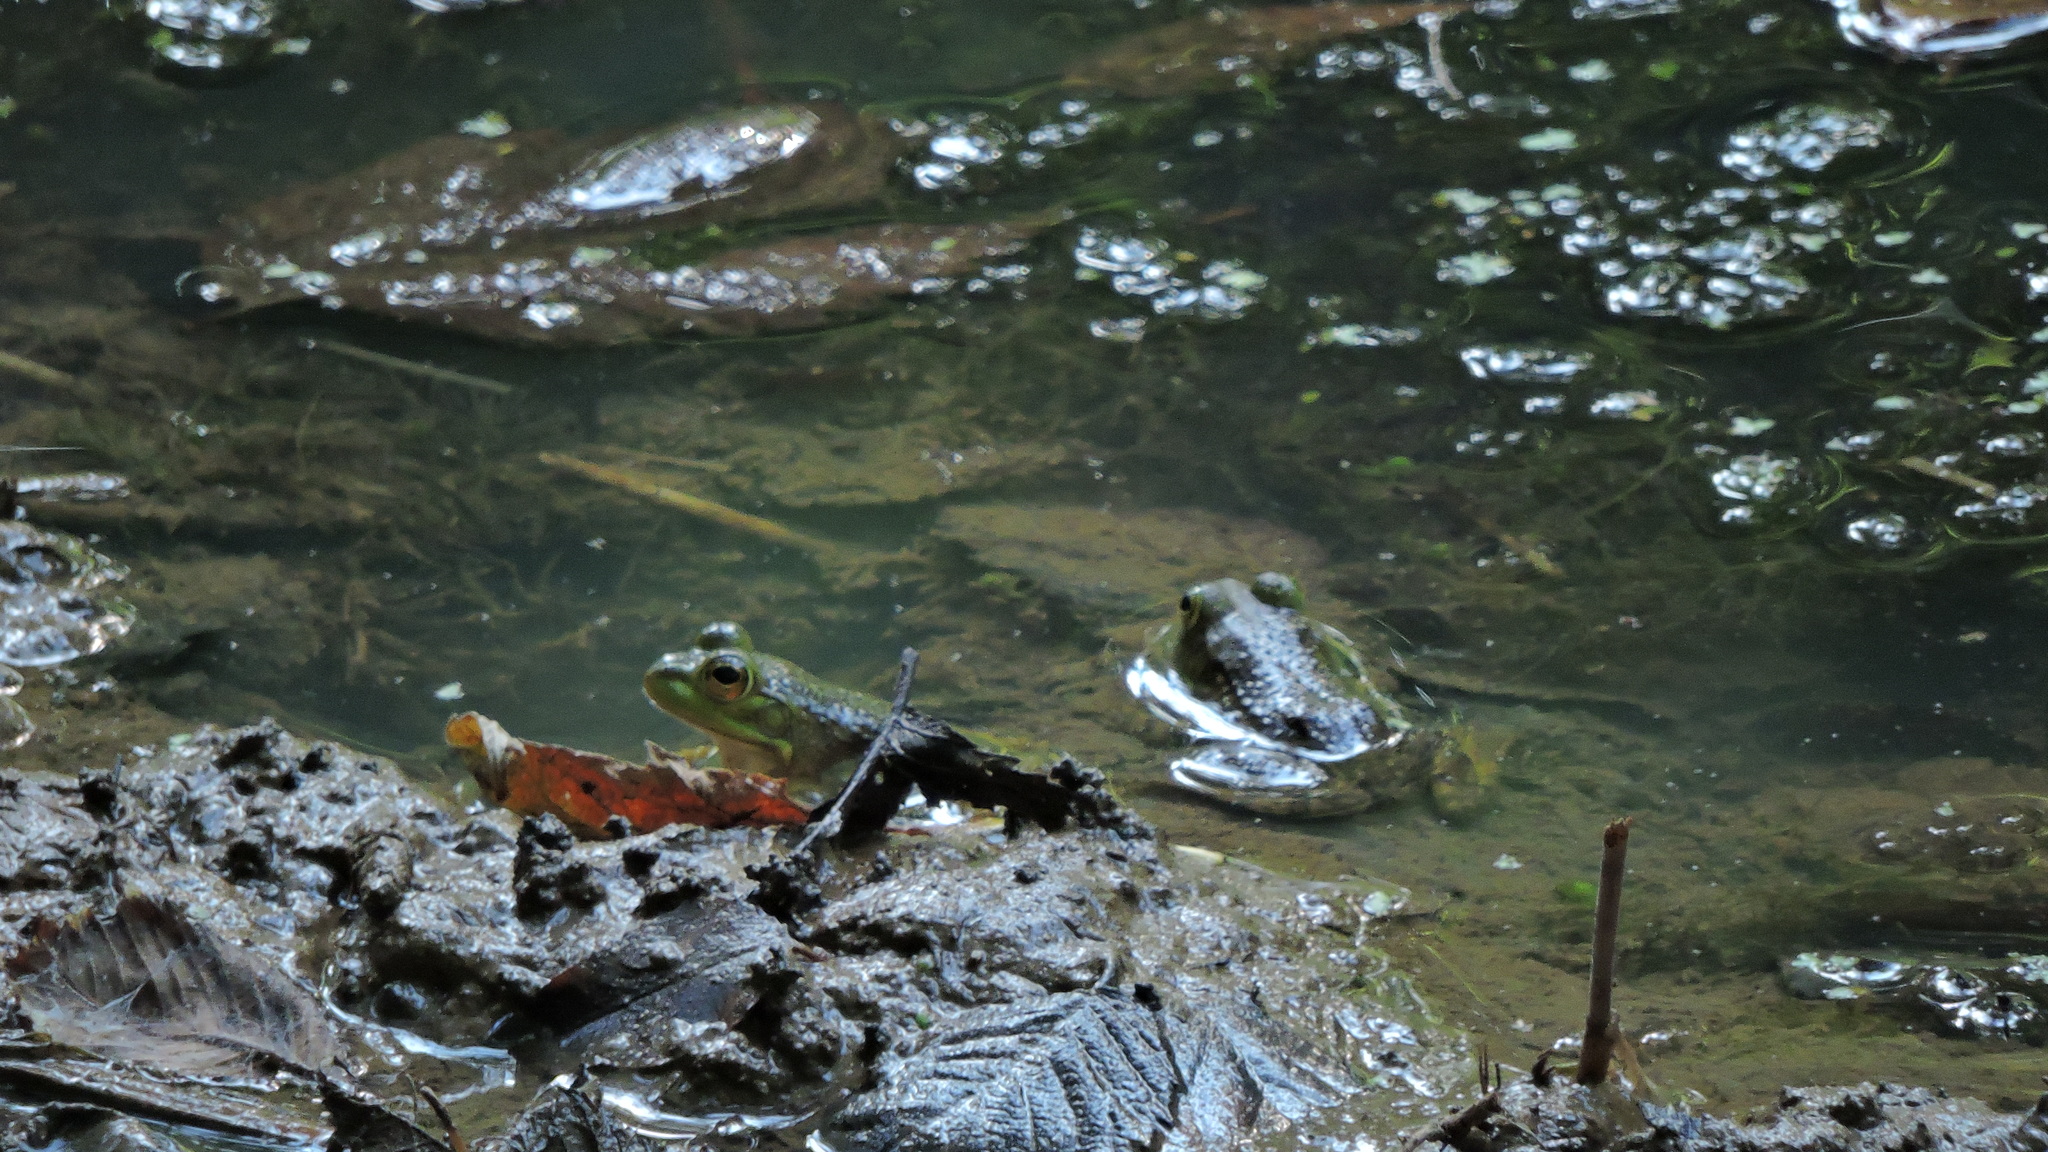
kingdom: Animalia
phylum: Chordata
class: Amphibia
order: Anura
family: Ranidae
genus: Lithobates
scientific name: Lithobates catesbeianus
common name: American bullfrog
